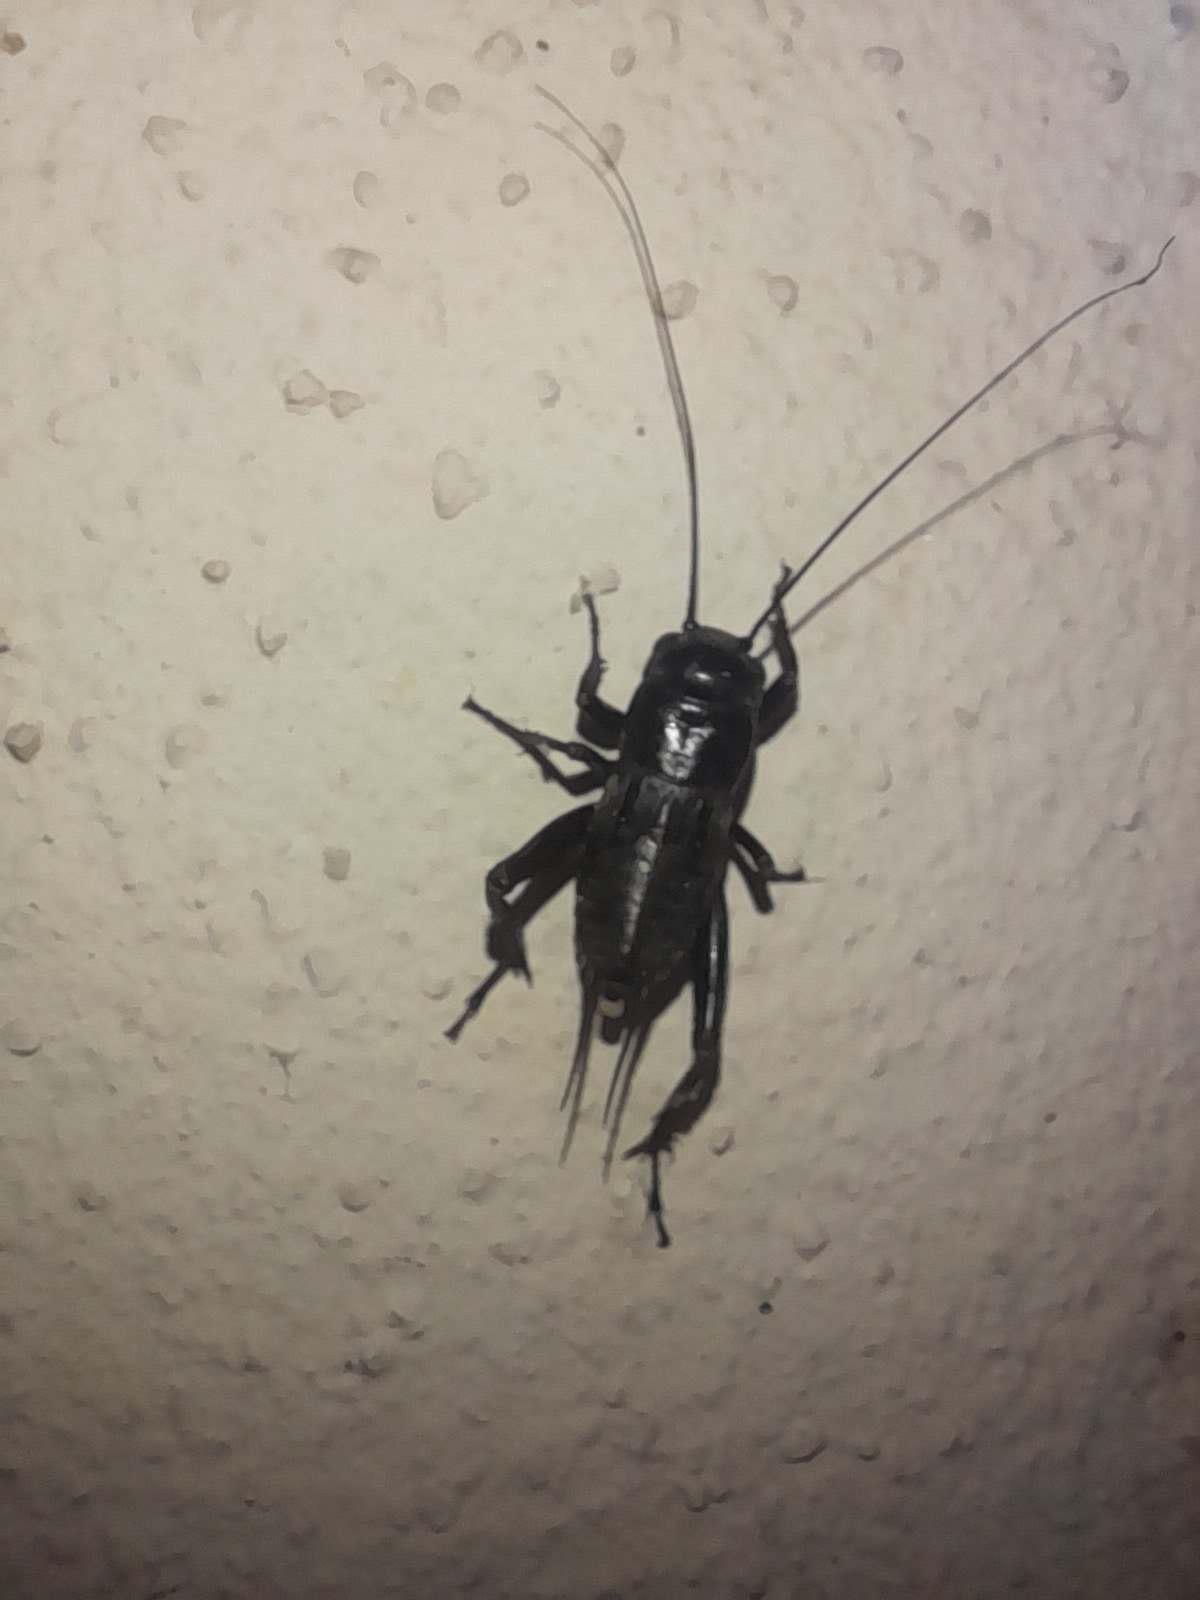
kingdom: Animalia
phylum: Arthropoda
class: Insecta
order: Orthoptera
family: Gryllidae
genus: Gryllus
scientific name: Gryllus bimaculatus
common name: Two-spotted cricket
